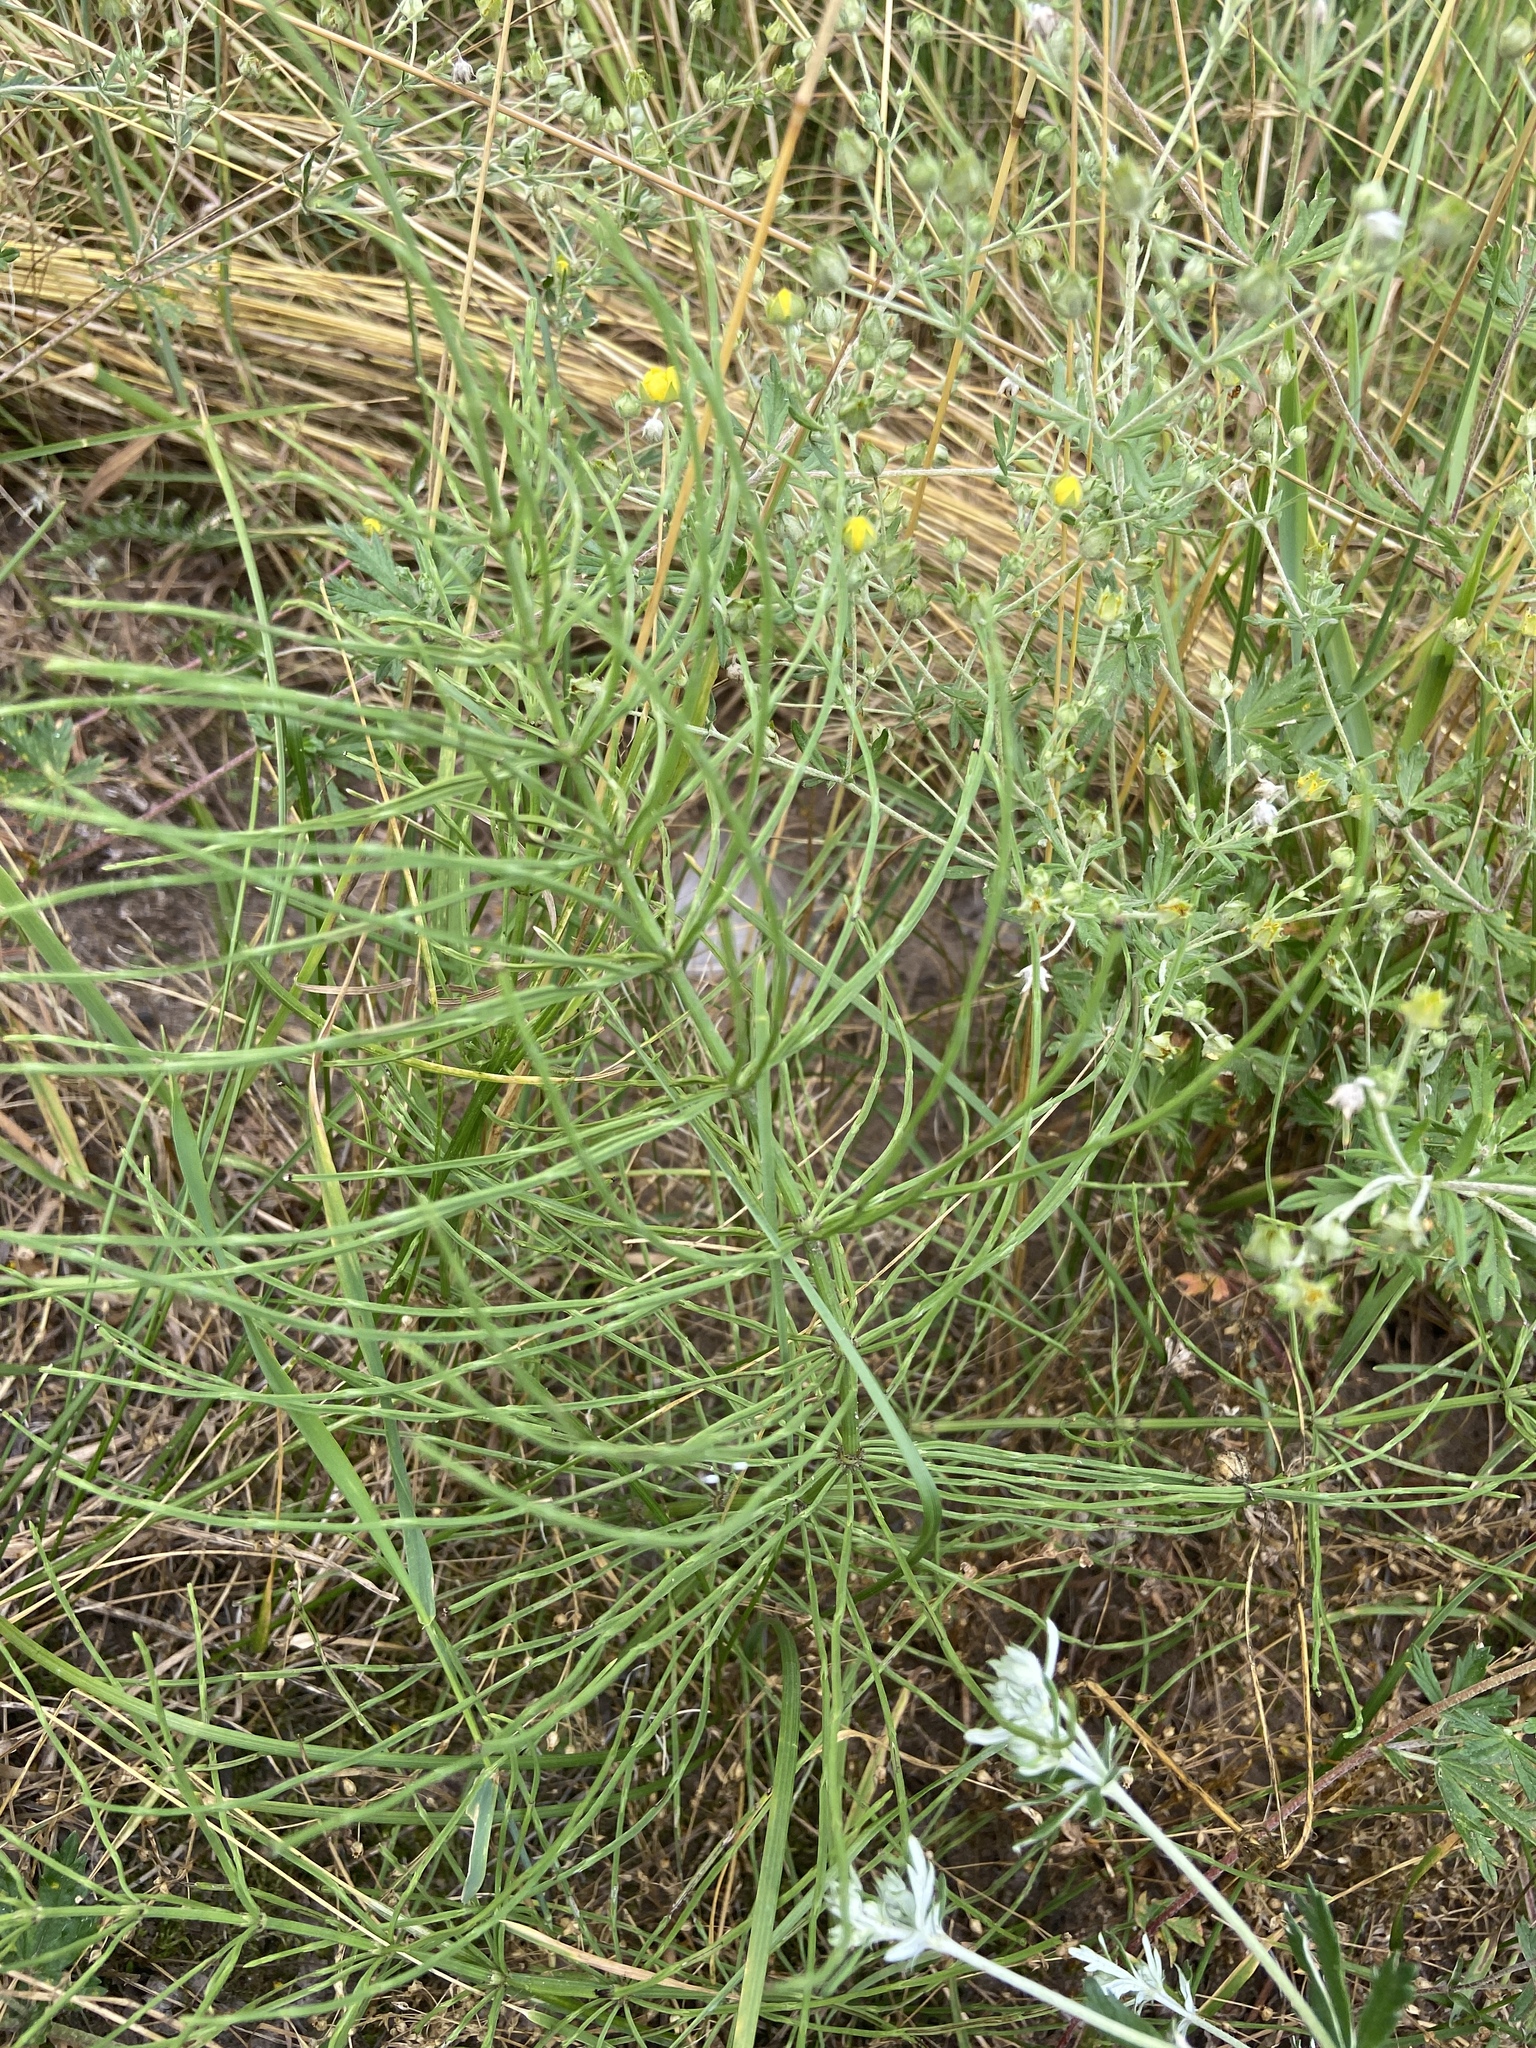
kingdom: Plantae
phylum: Tracheophyta
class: Polypodiopsida
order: Equisetales
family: Equisetaceae
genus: Equisetum
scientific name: Equisetum arvense
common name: Field horsetail
